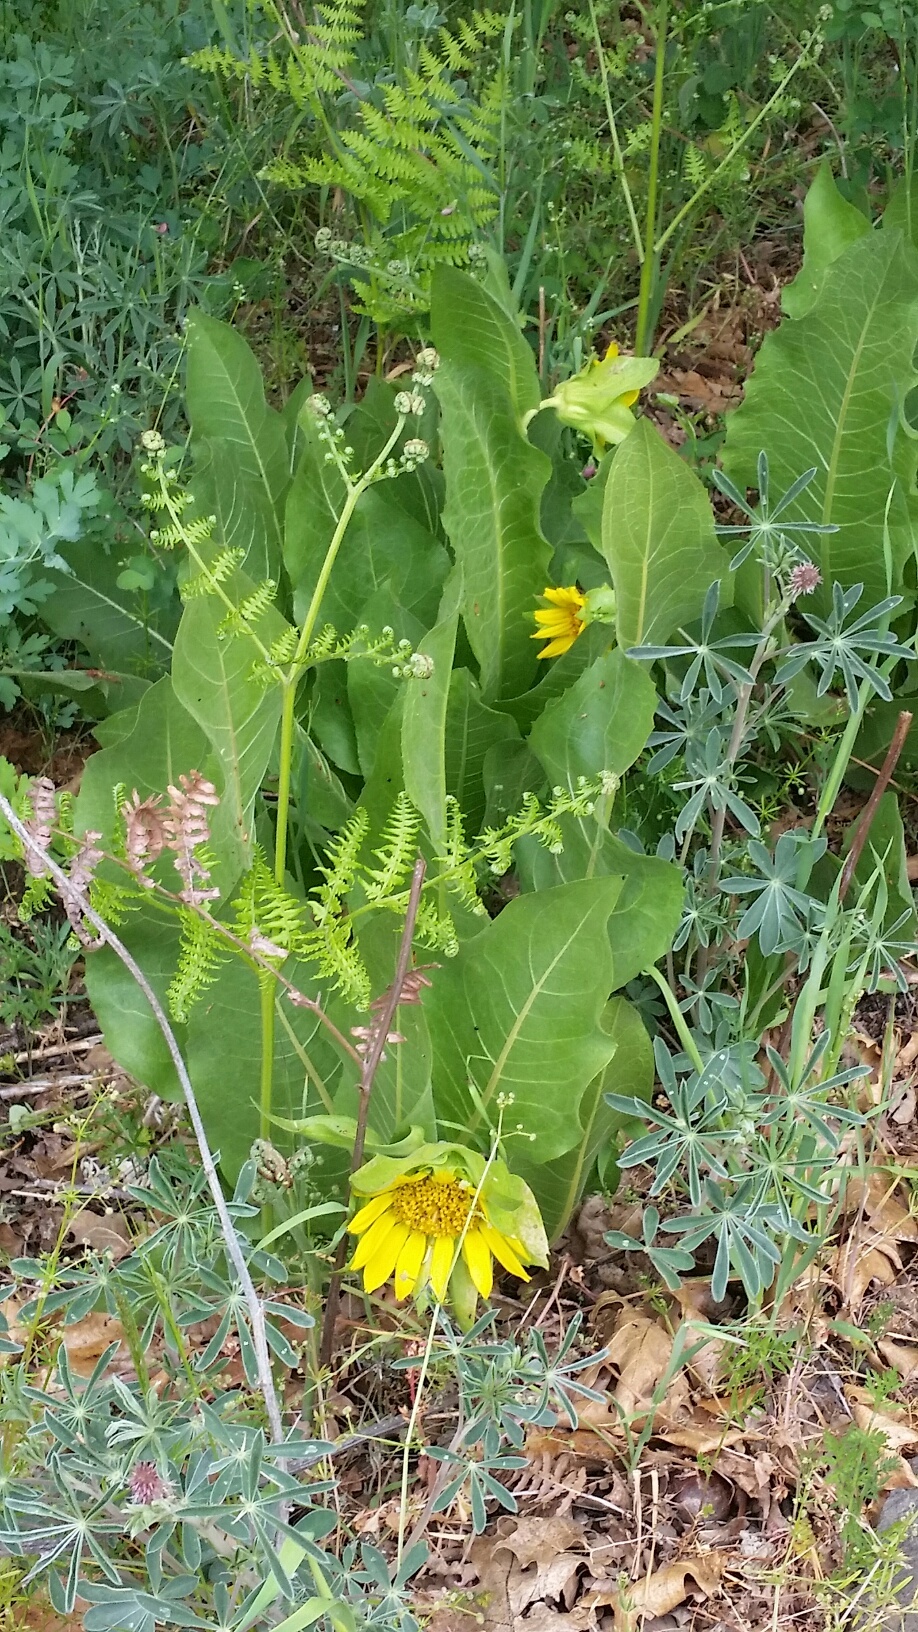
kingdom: Plantae
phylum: Tracheophyta
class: Magnoliopsida
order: Asterales
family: Asteraceae
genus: Wyethia
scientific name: Wyethia glabra
